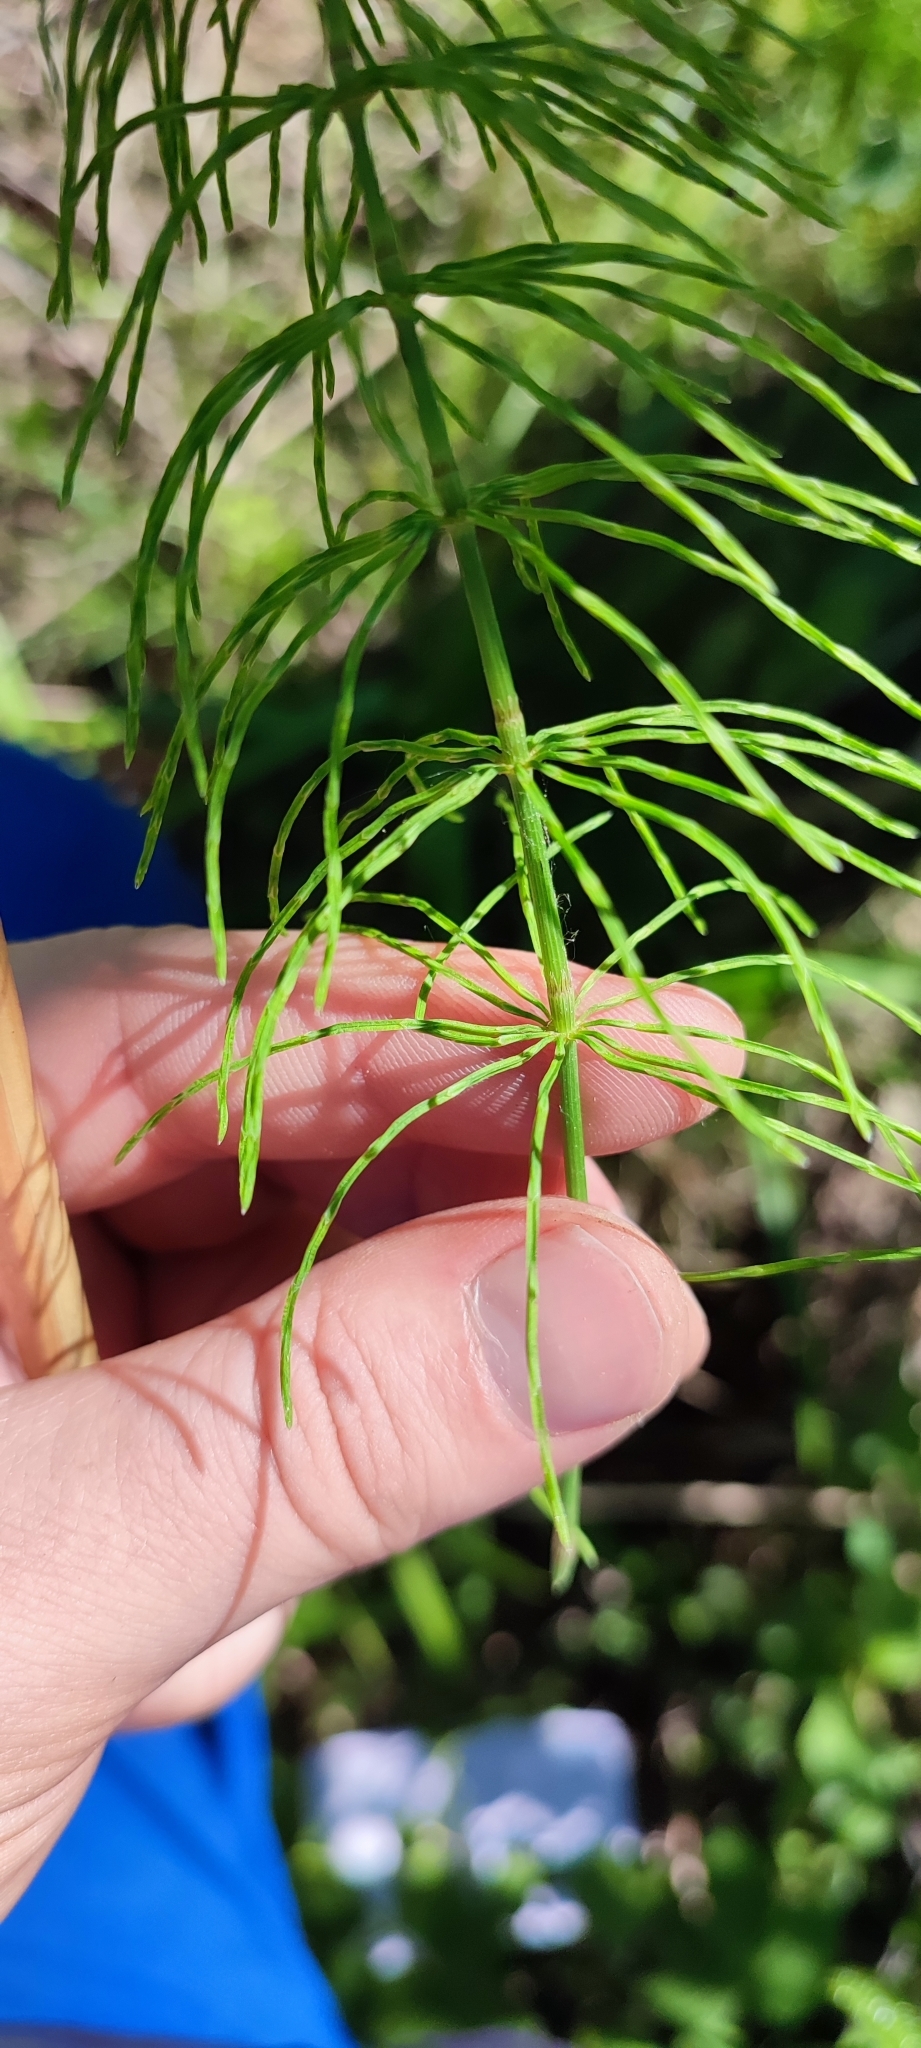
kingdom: Plantae
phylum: Tracheophyta
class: Polypodiopsida
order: Equisetales
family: Equisetaceae
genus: Equisetum
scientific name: Equisetum pratense
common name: Meadow horsetail
